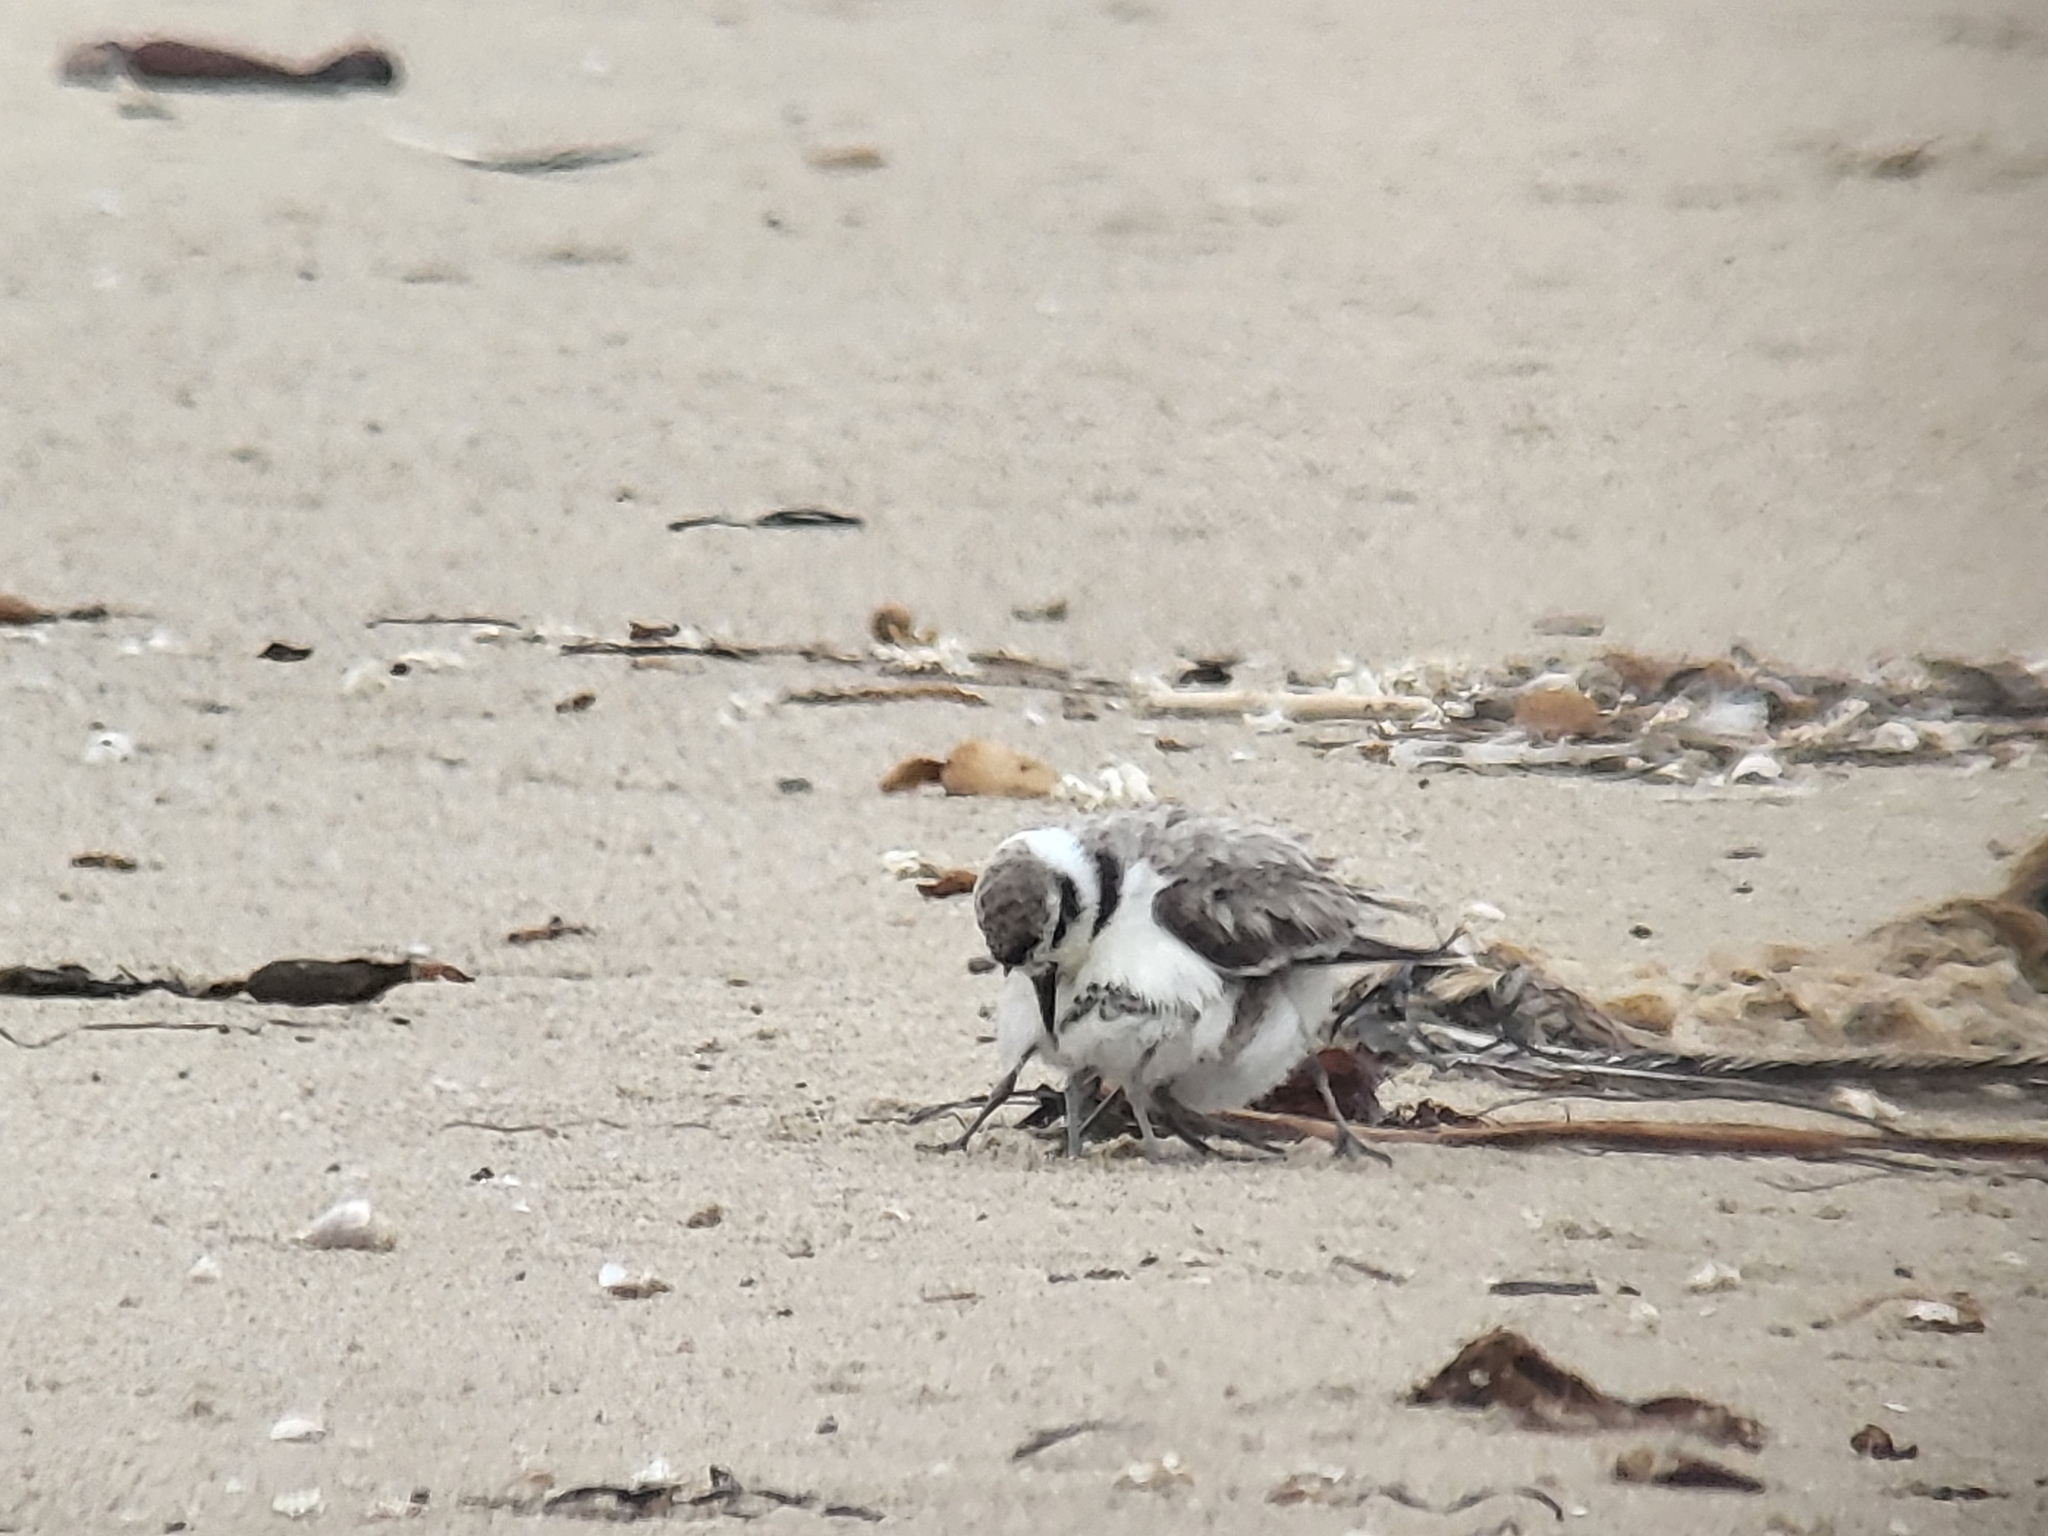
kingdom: Animalia
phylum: Chordata
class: Aves
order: Charadriiformes
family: Charadriidae
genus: Anarhynchus
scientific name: Anarhynchus
